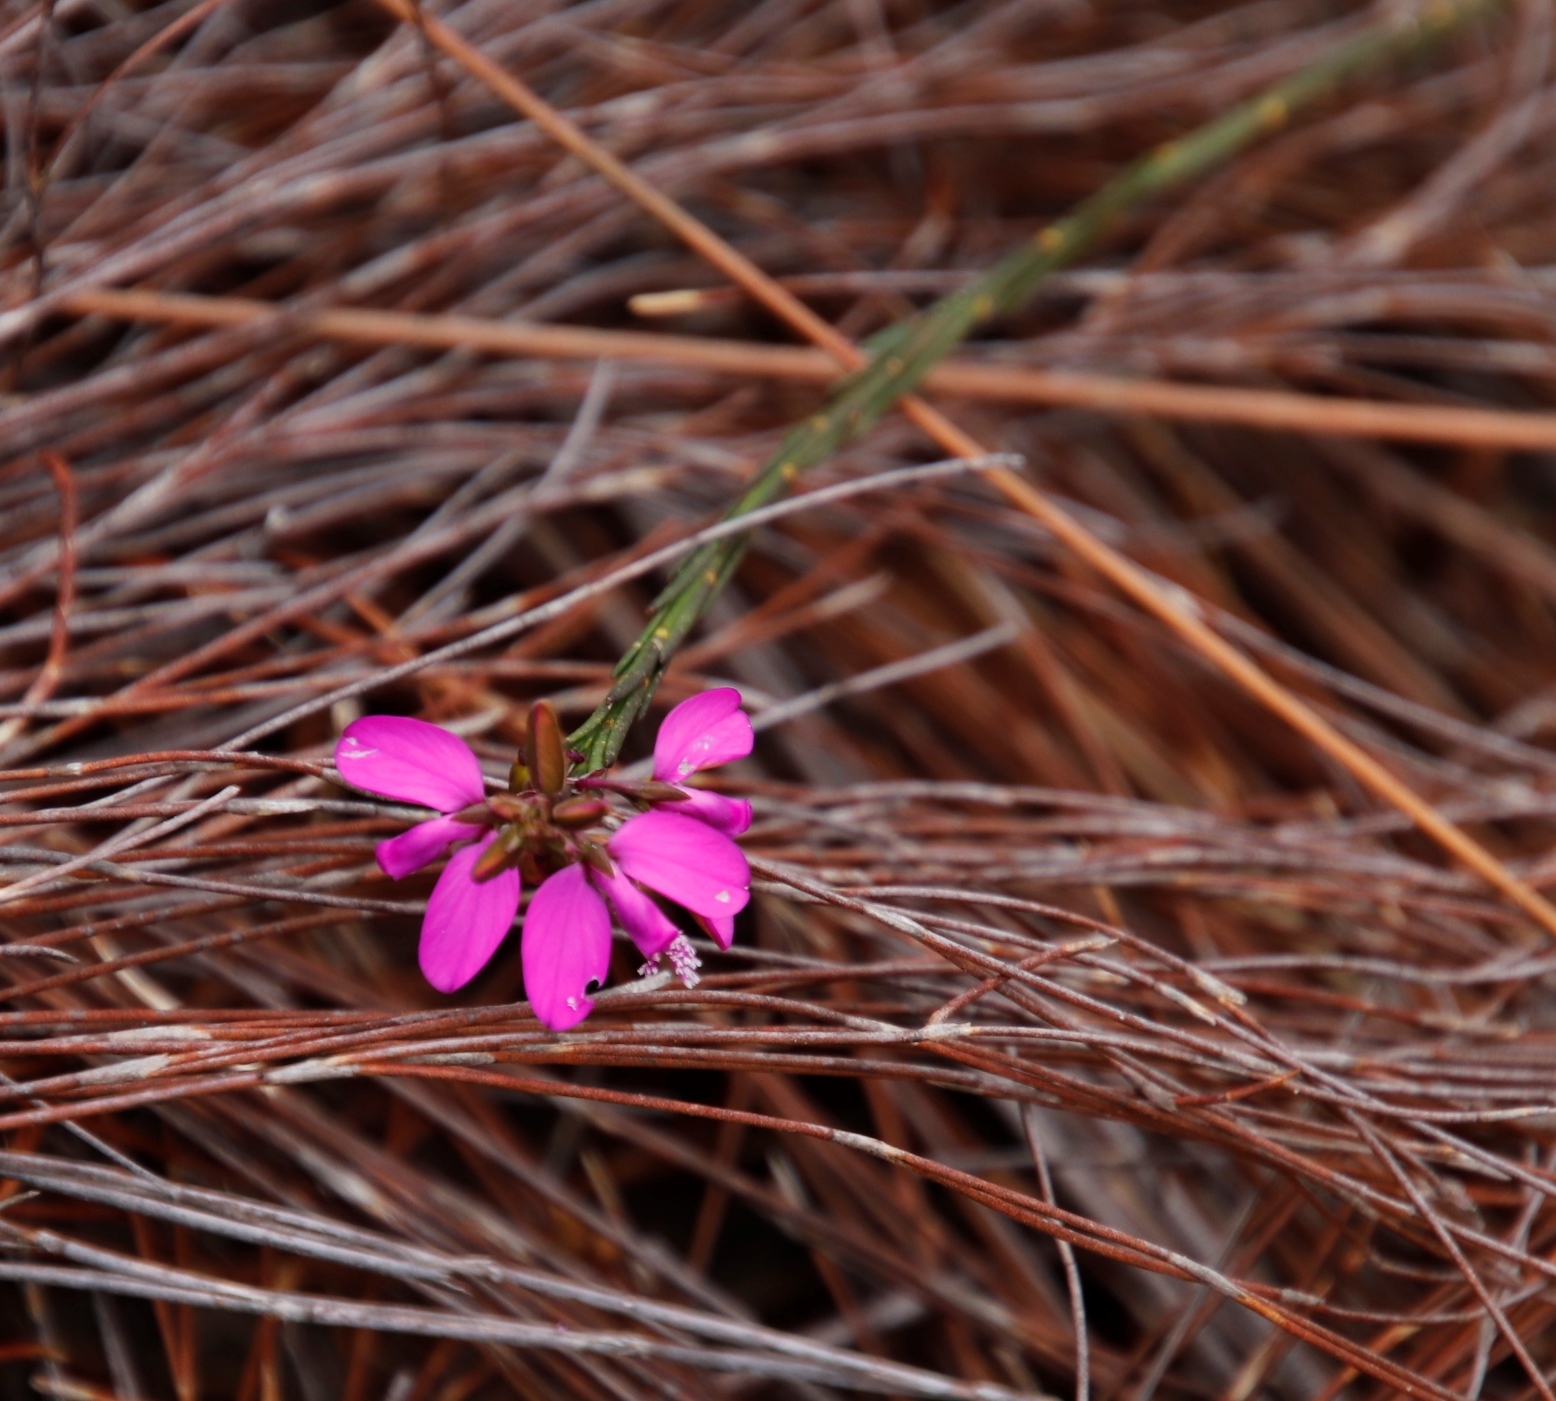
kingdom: Plantae
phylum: Tracheophyta
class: Magnoliopsida
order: Fabales
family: Polygalaceae
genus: Polygala
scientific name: Polygala garcini
